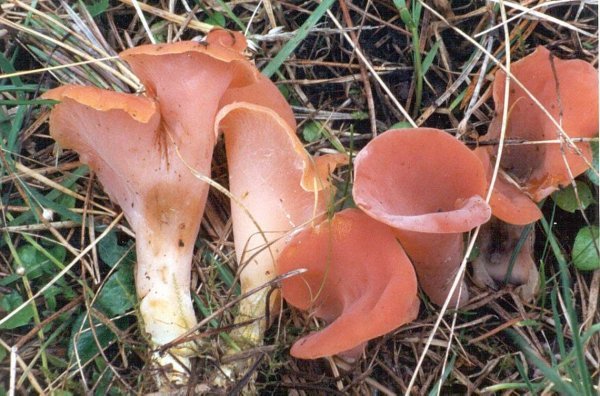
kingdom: Fungi
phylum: Basidiomycota
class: Agaricomycetes
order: Auriculariales
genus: Guepinia
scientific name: Guepinia helvelloides
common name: Salmon salad
